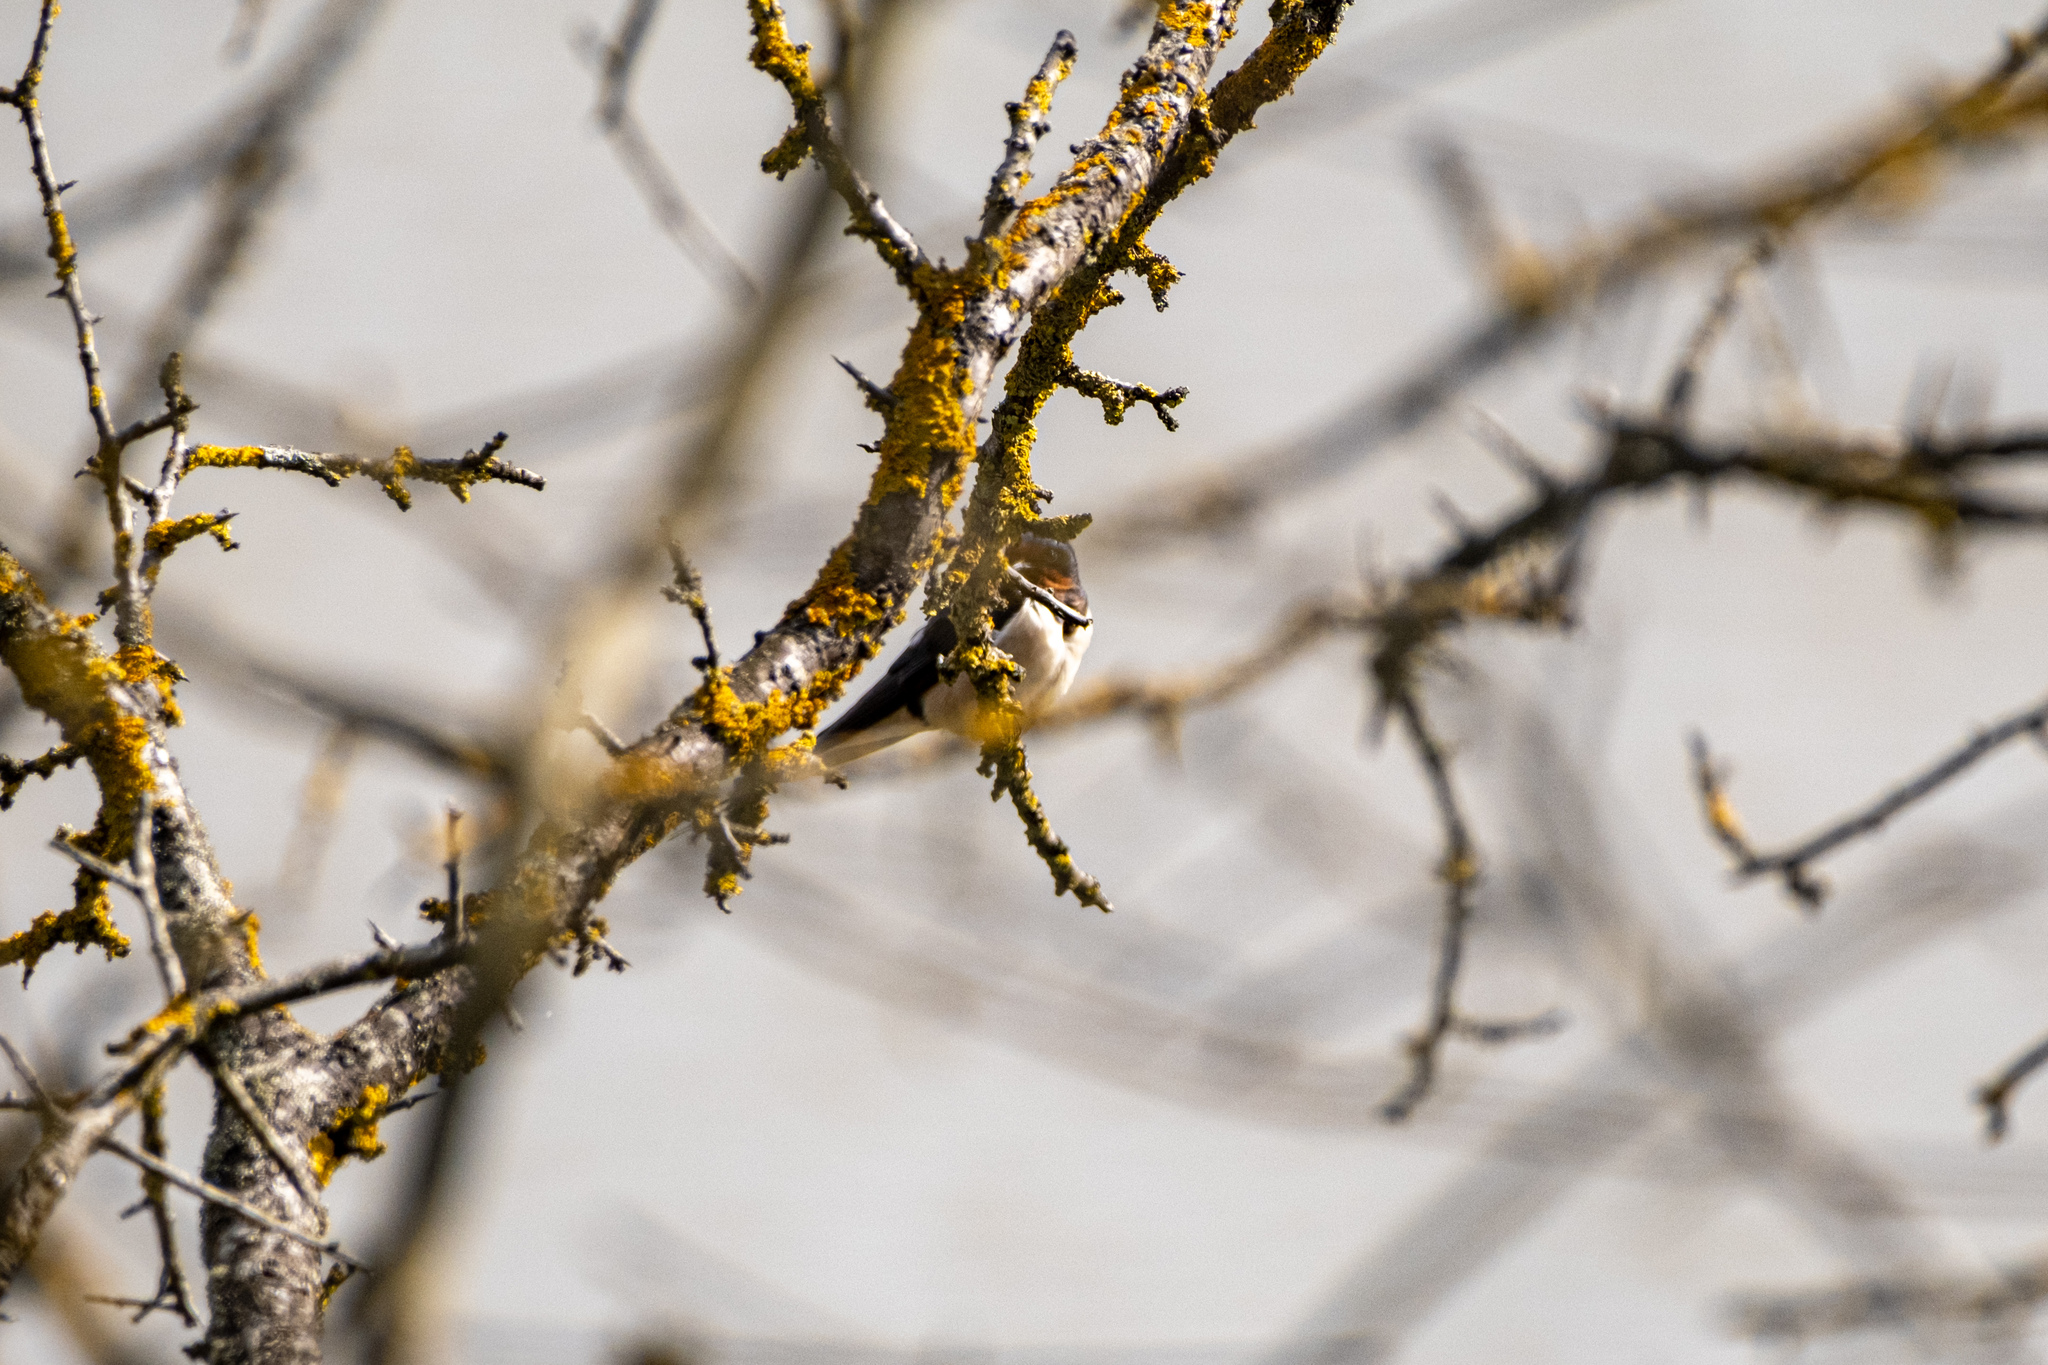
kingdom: Animalia
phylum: Chordata
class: Aves
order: Passeriformes
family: Hirundinidae
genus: Hirundo
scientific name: Hirundo rustica
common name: Barn swallow
